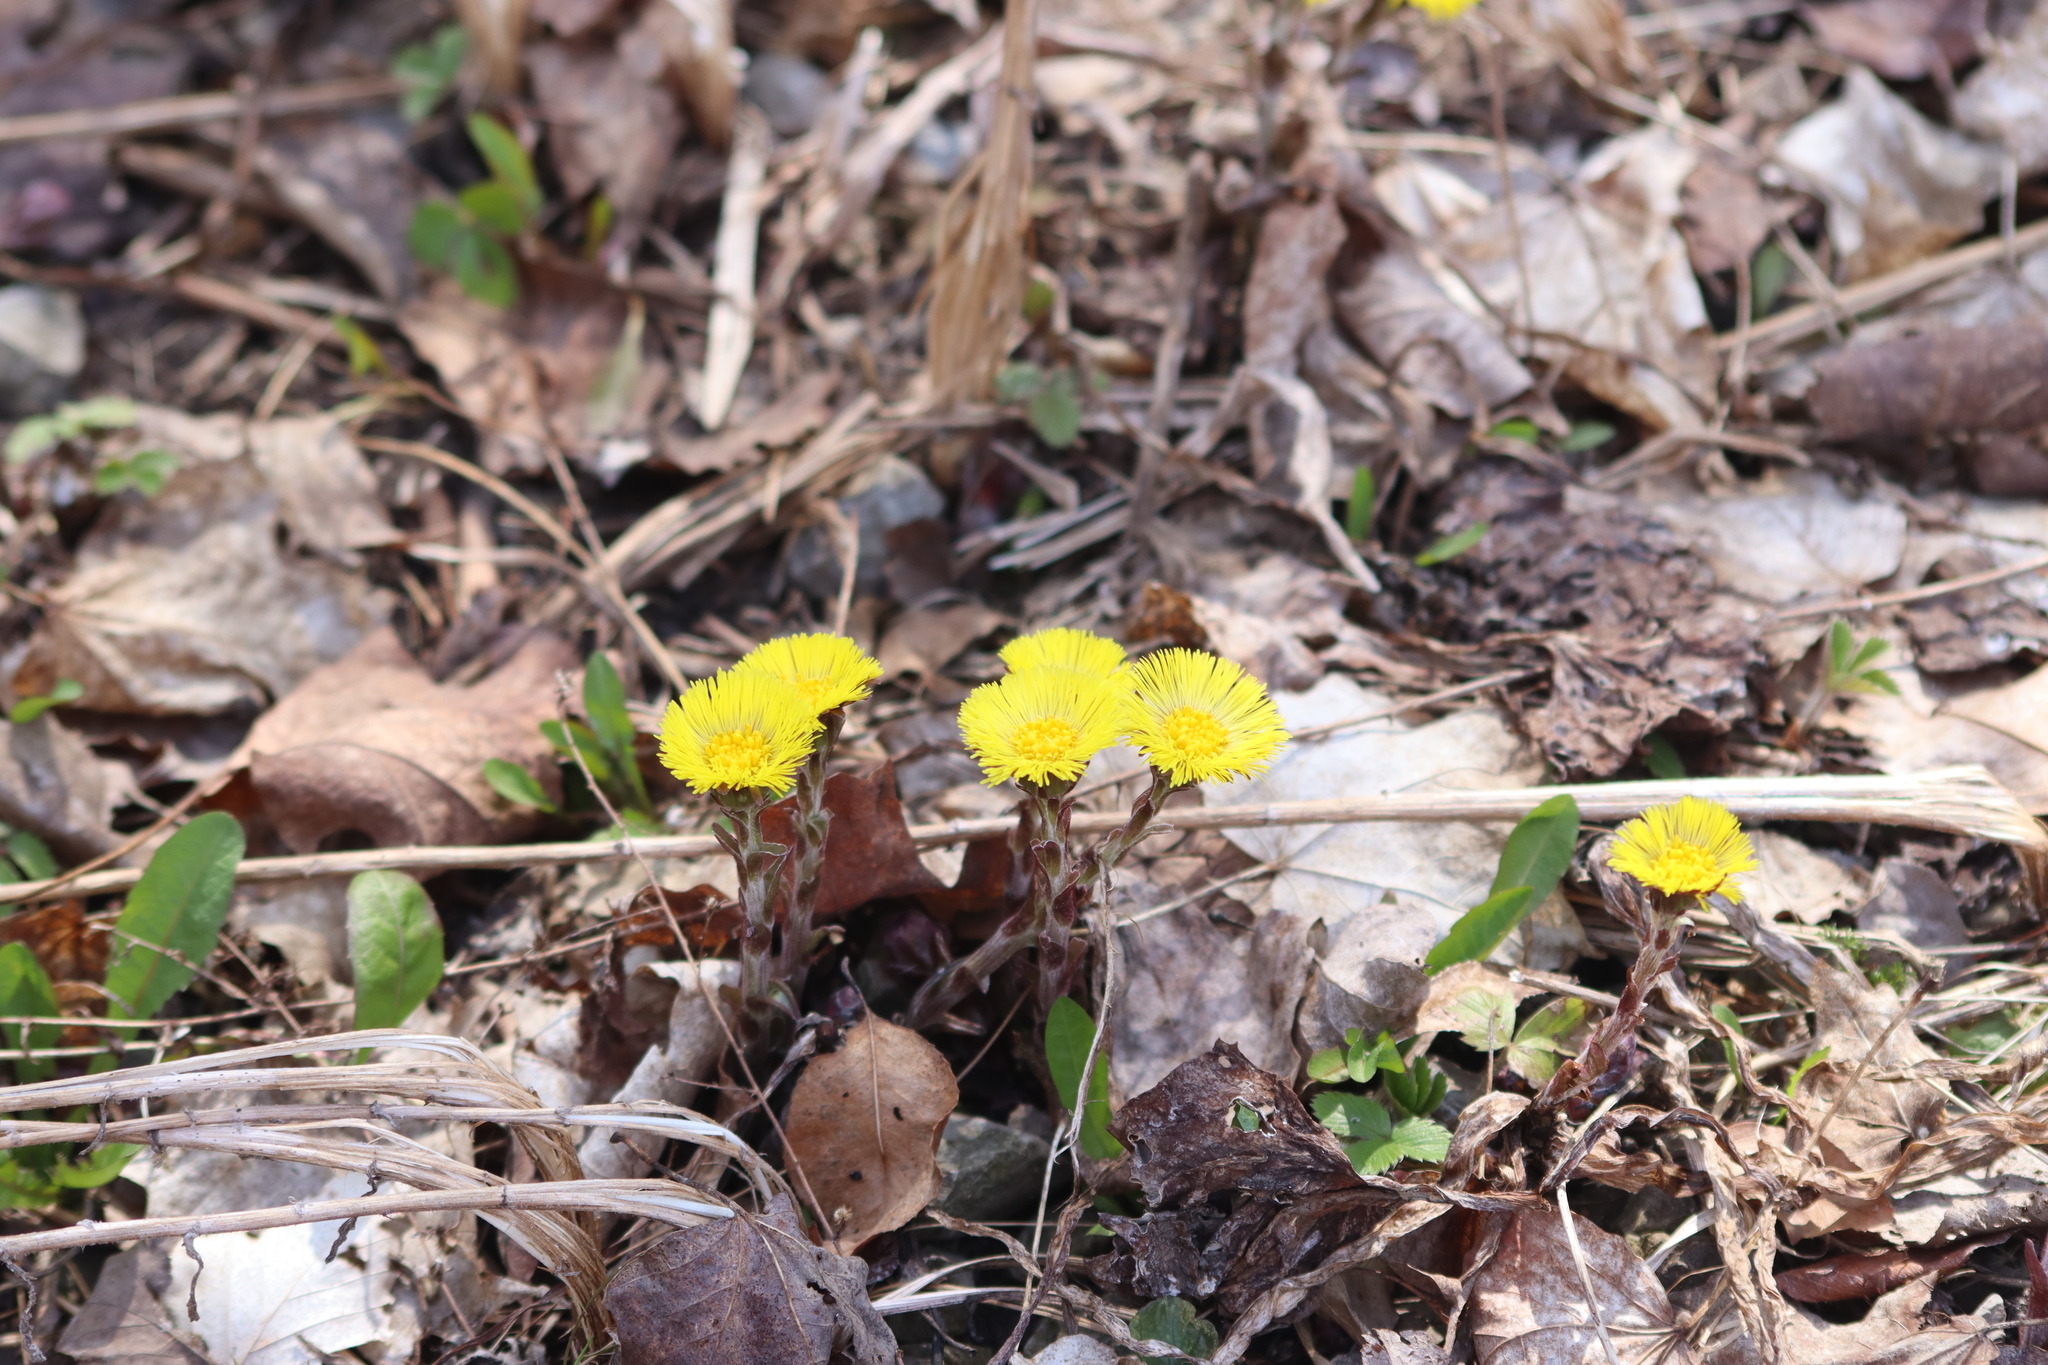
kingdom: Plantae
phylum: Tracheophyta
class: Magnoliopsida
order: Asterales
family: Asteraceae
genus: Tussilago
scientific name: Tussilago farfara
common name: Coltsfoot
